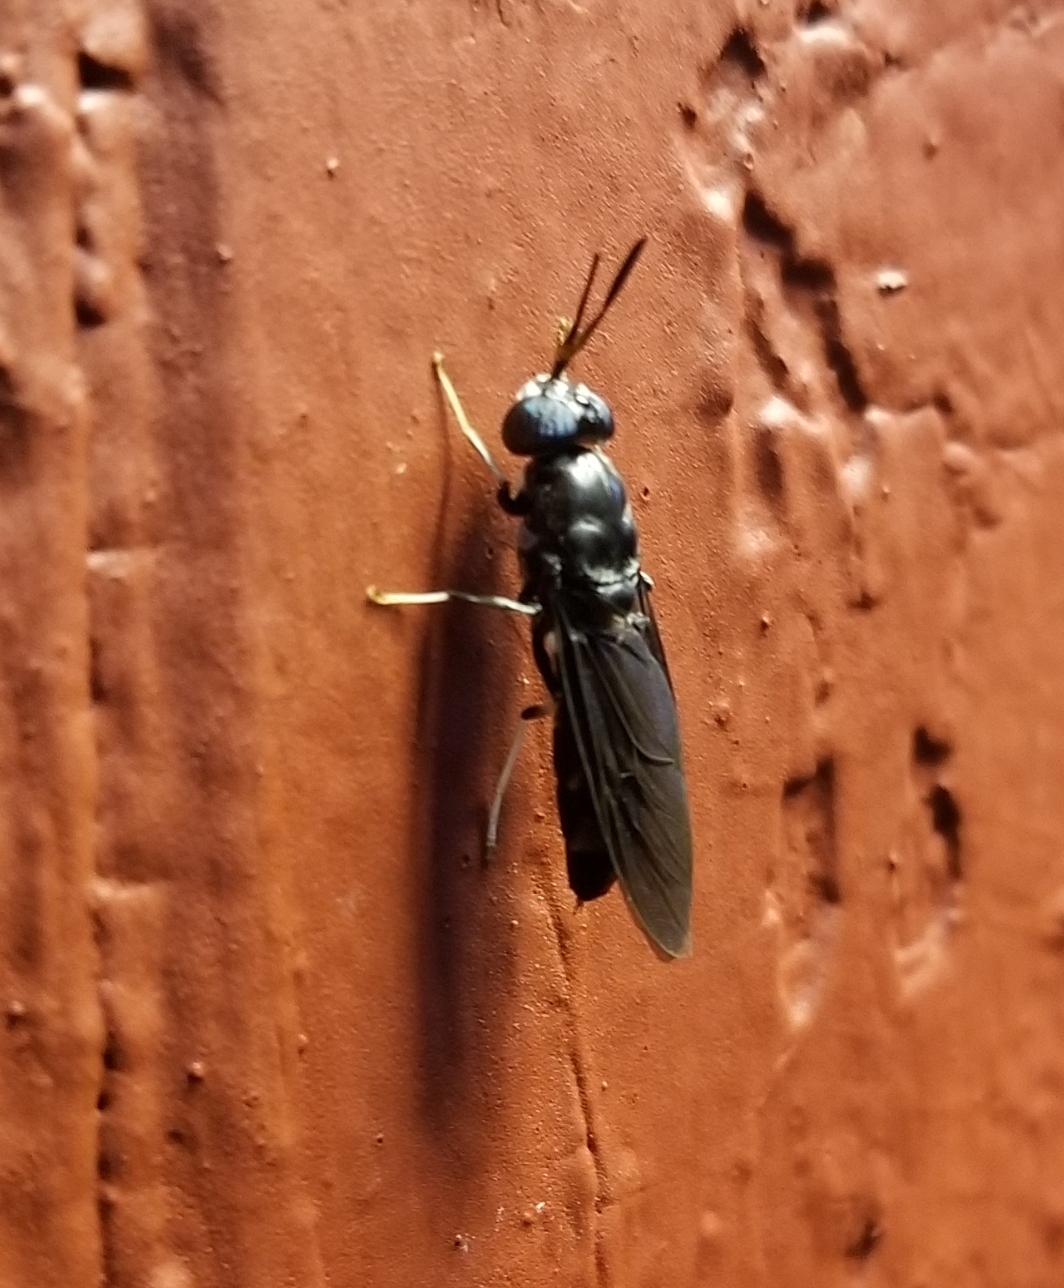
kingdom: Animalia
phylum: Arthropoda
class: Insecta
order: Diptera
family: Stratiomyidae
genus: Hermetia
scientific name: Hermetia illucens
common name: Black soldier fly
